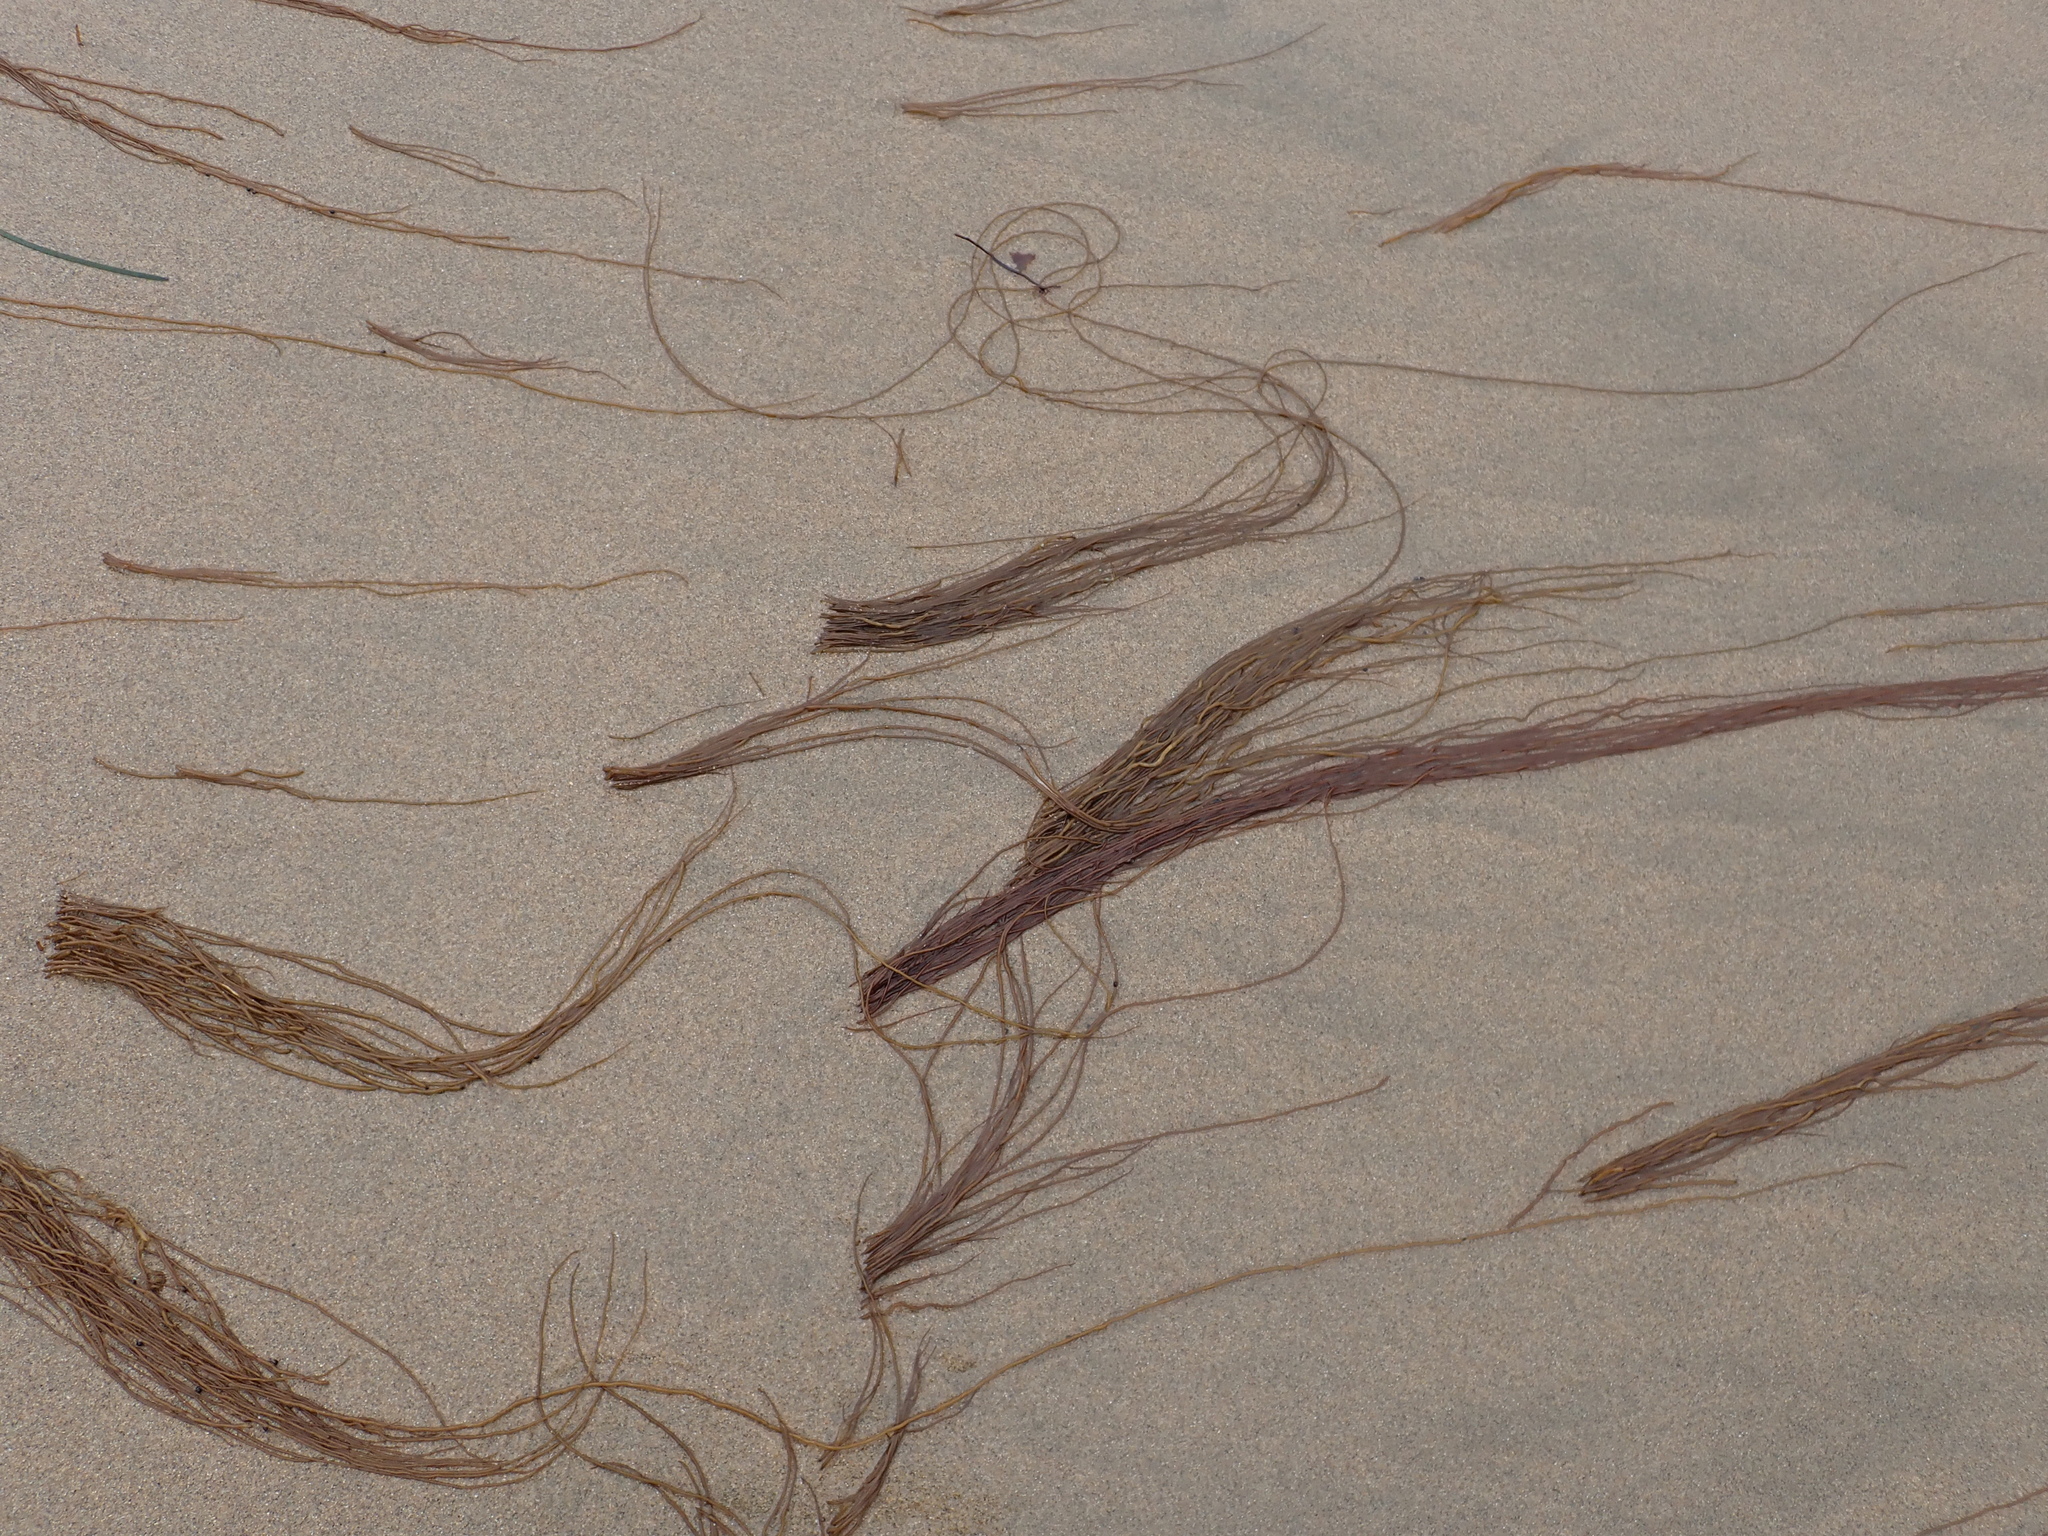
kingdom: Plantae
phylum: Rhodophyta
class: Florideophyceae
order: Gracilariales
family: Gracilariaceae
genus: Gracilariopsis
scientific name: Gracilariopsis andersonii
